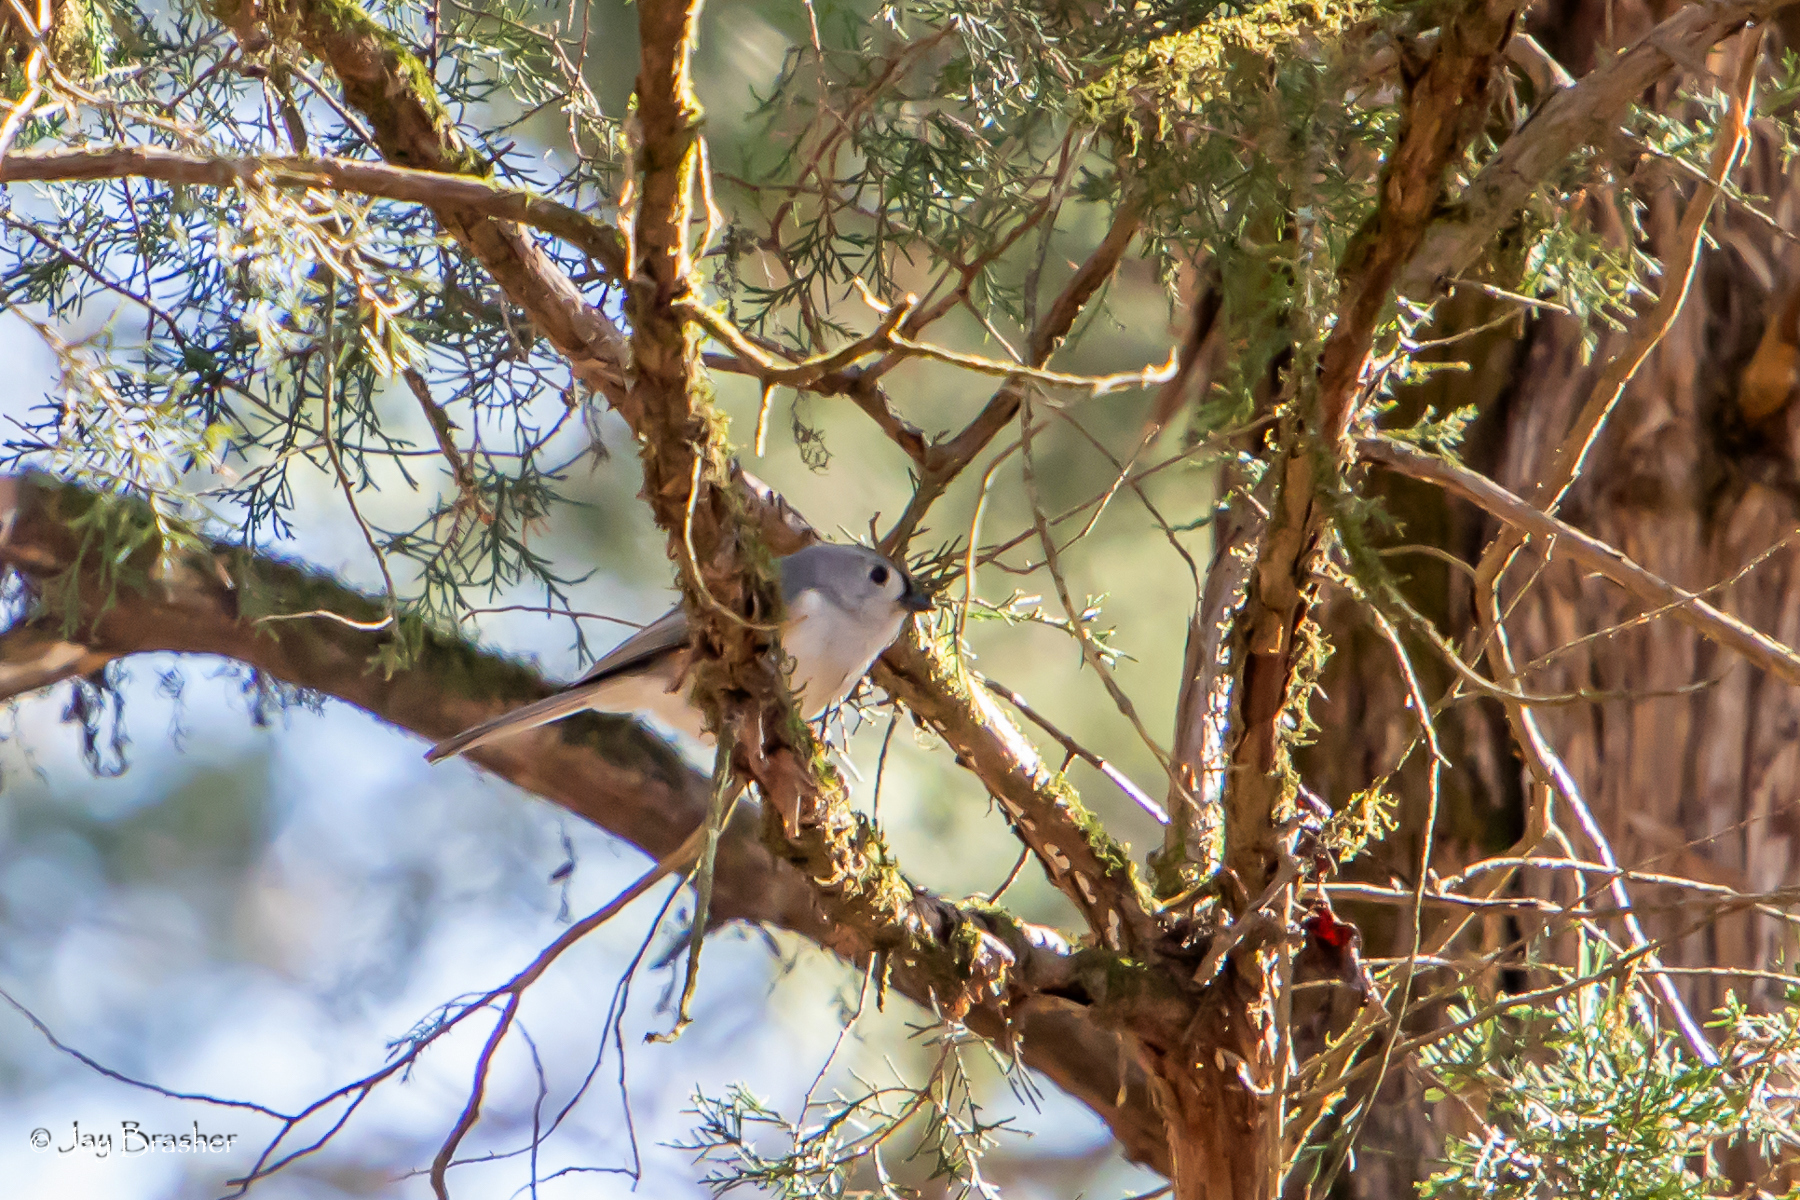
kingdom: Animalia
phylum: Chordata
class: Aves
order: Passeriformes
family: Paridae
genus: Baeolophus
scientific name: Baeolophus bicolor
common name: Tufted titmouse
